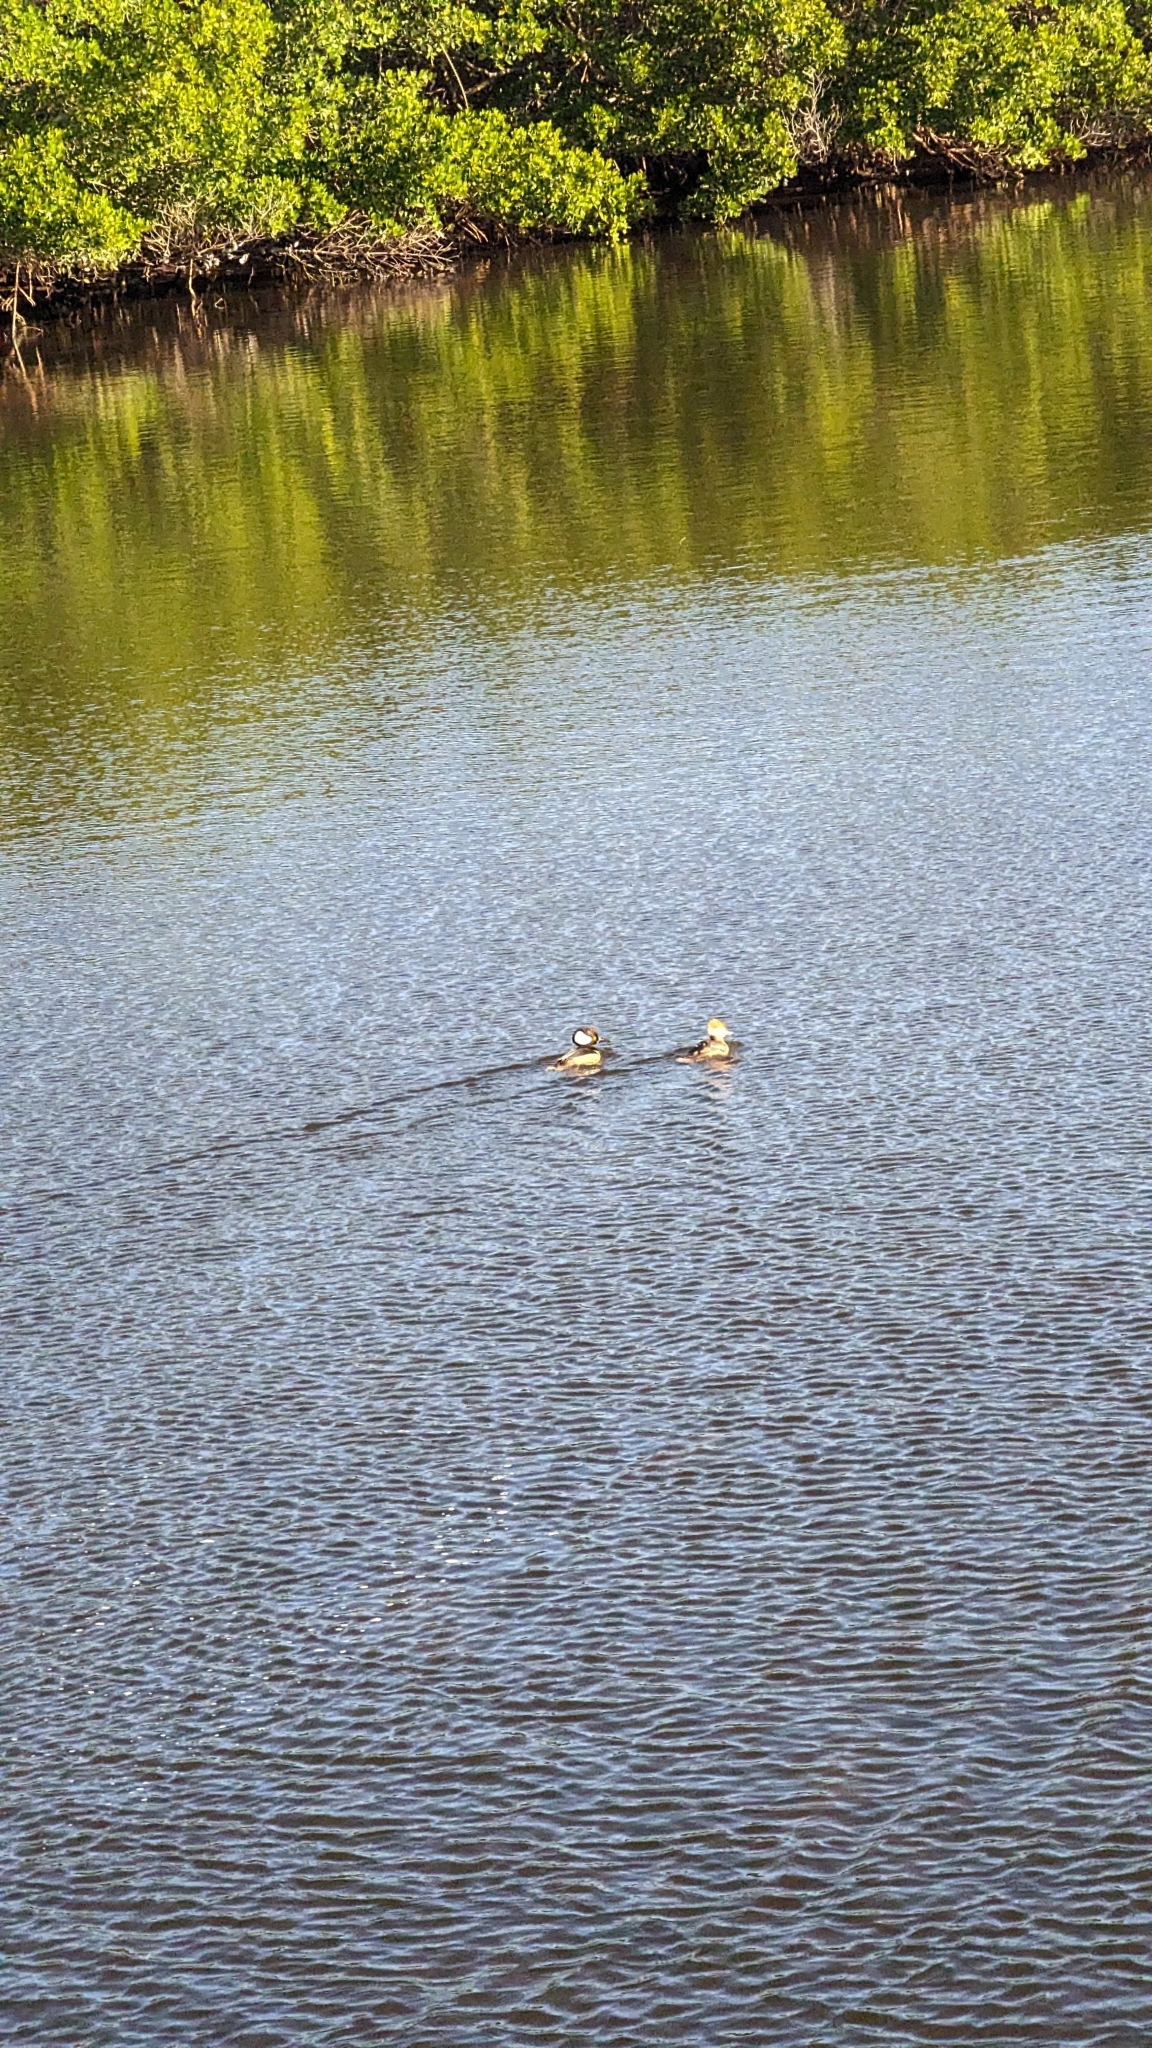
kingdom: Animalia
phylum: Chordata
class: Aves
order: Anseriformes
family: Anatidae
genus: Lophodytes
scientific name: Lophodytes cucullatus
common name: Hooded merganser
